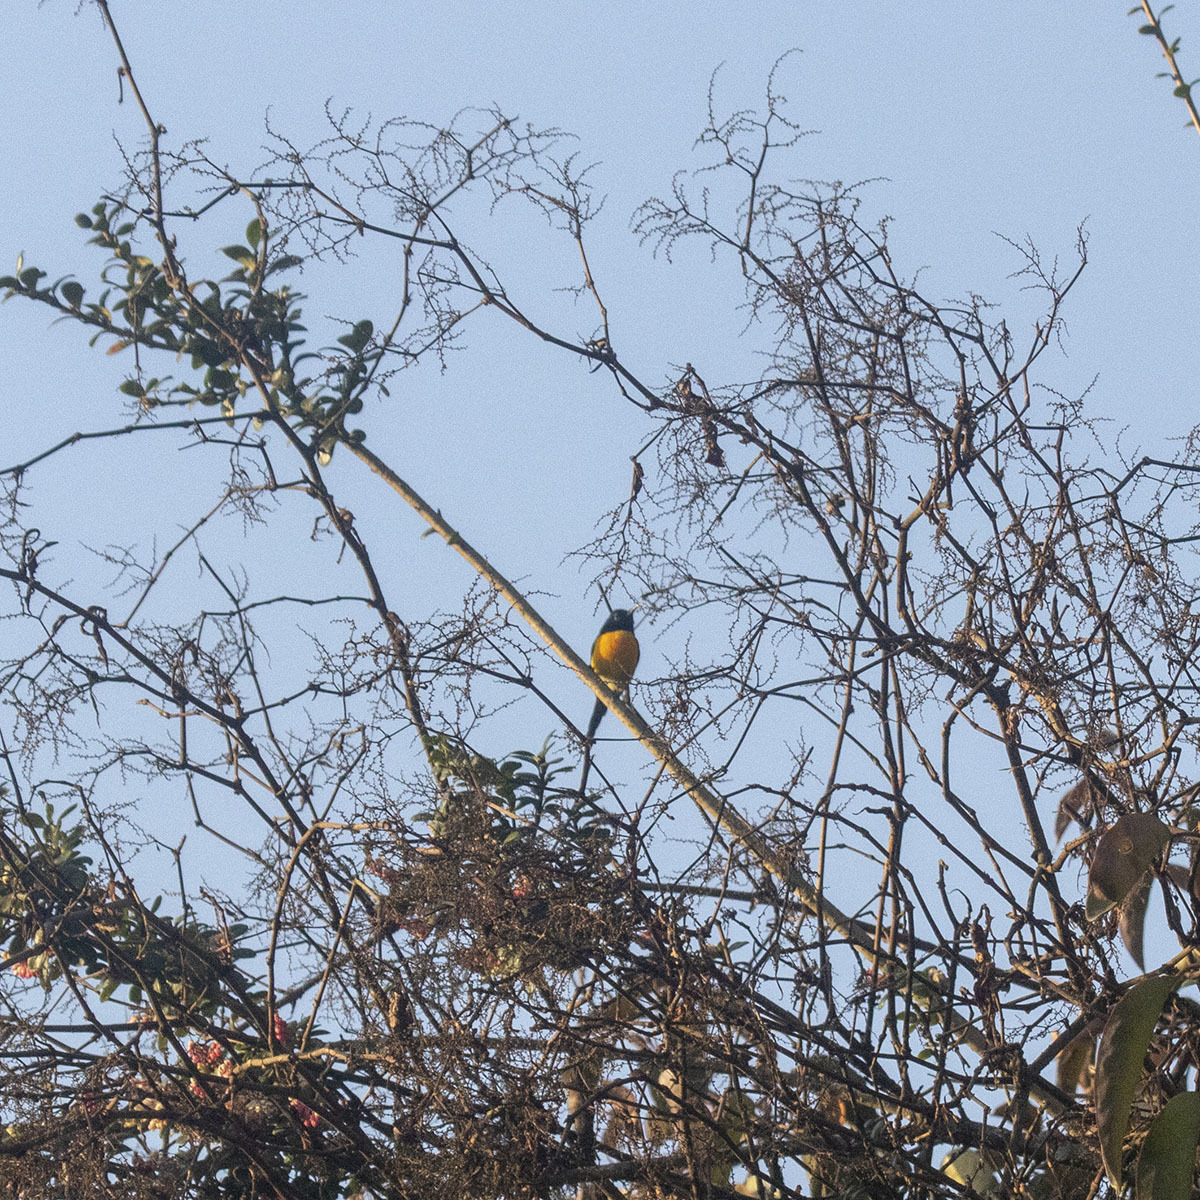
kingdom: Animalia
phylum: Chordata
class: Aves
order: Passeriformes
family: Nectariniidae
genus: Aethopyga
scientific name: Aethopyga nipalensis
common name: Green-tailed sunbird
